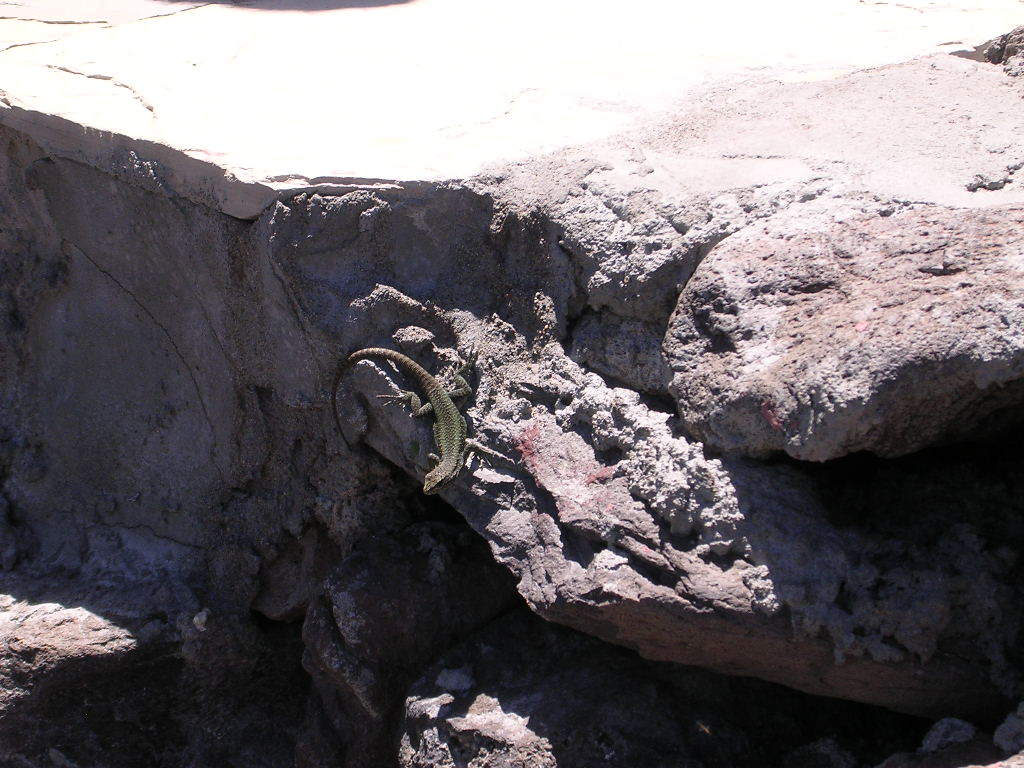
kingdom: Animalia
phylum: Chordata
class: Squamata
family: Liolaemidae
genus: Liolaemus
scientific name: Liolaemus elongatus
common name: Elongate tree iguana
